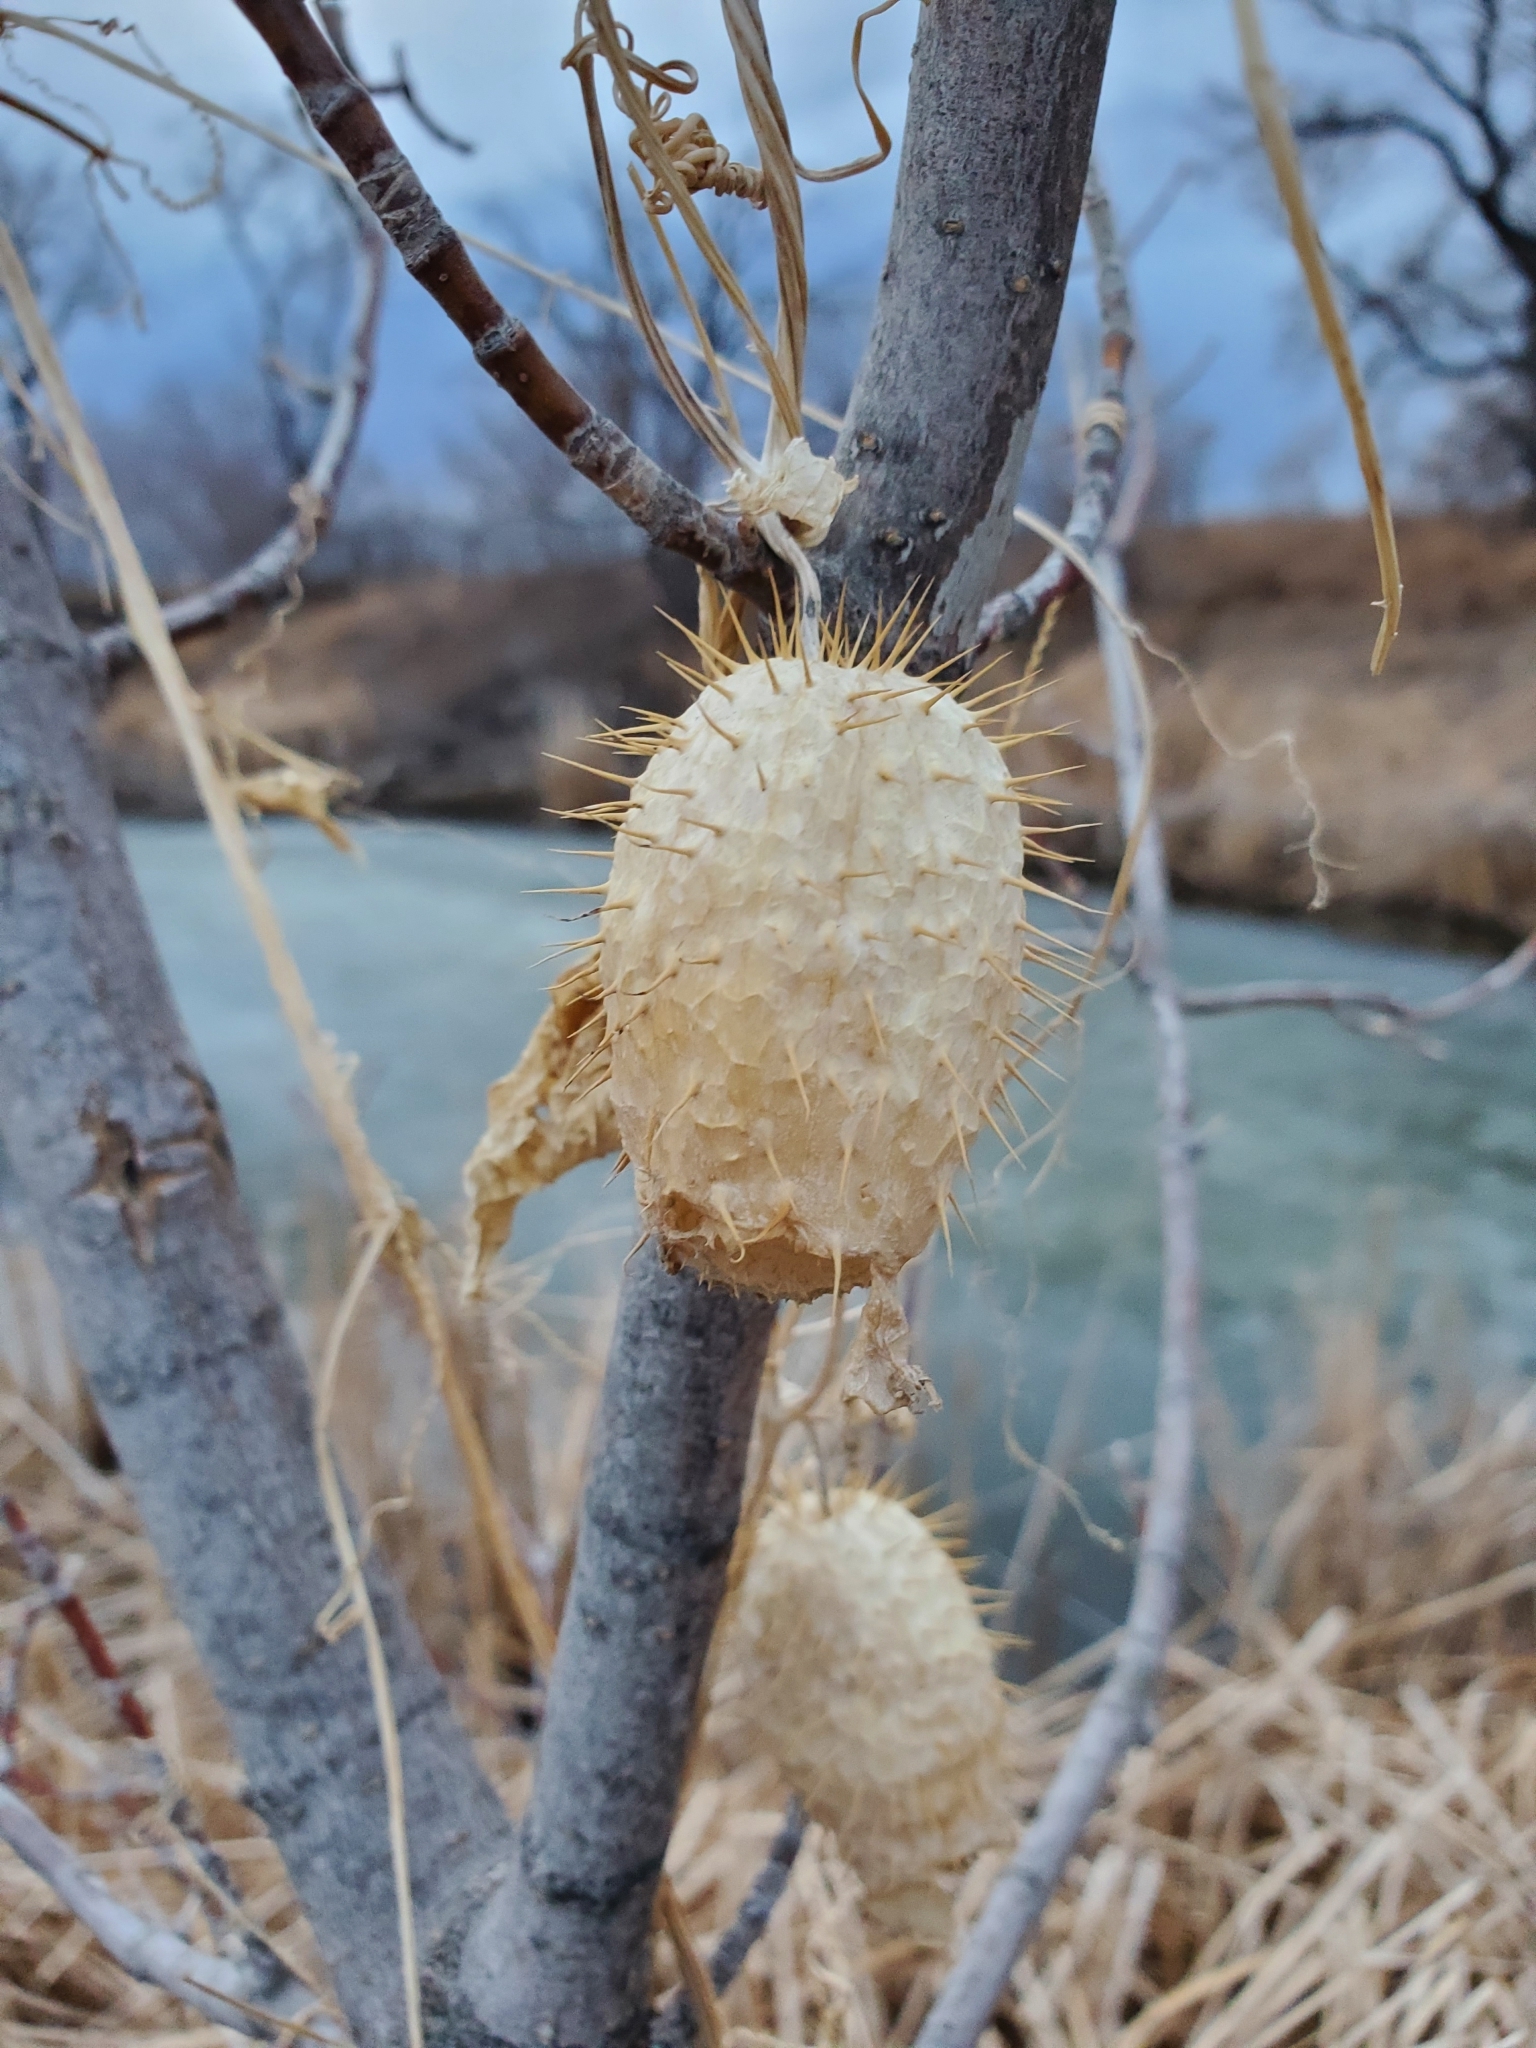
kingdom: Plantae
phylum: Tracheophyta
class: Magnoliopsida
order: Cucurbitales
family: Cucurbitaceae
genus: Echinocystis
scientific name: Echinocystis lobata
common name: Wild cucumber
